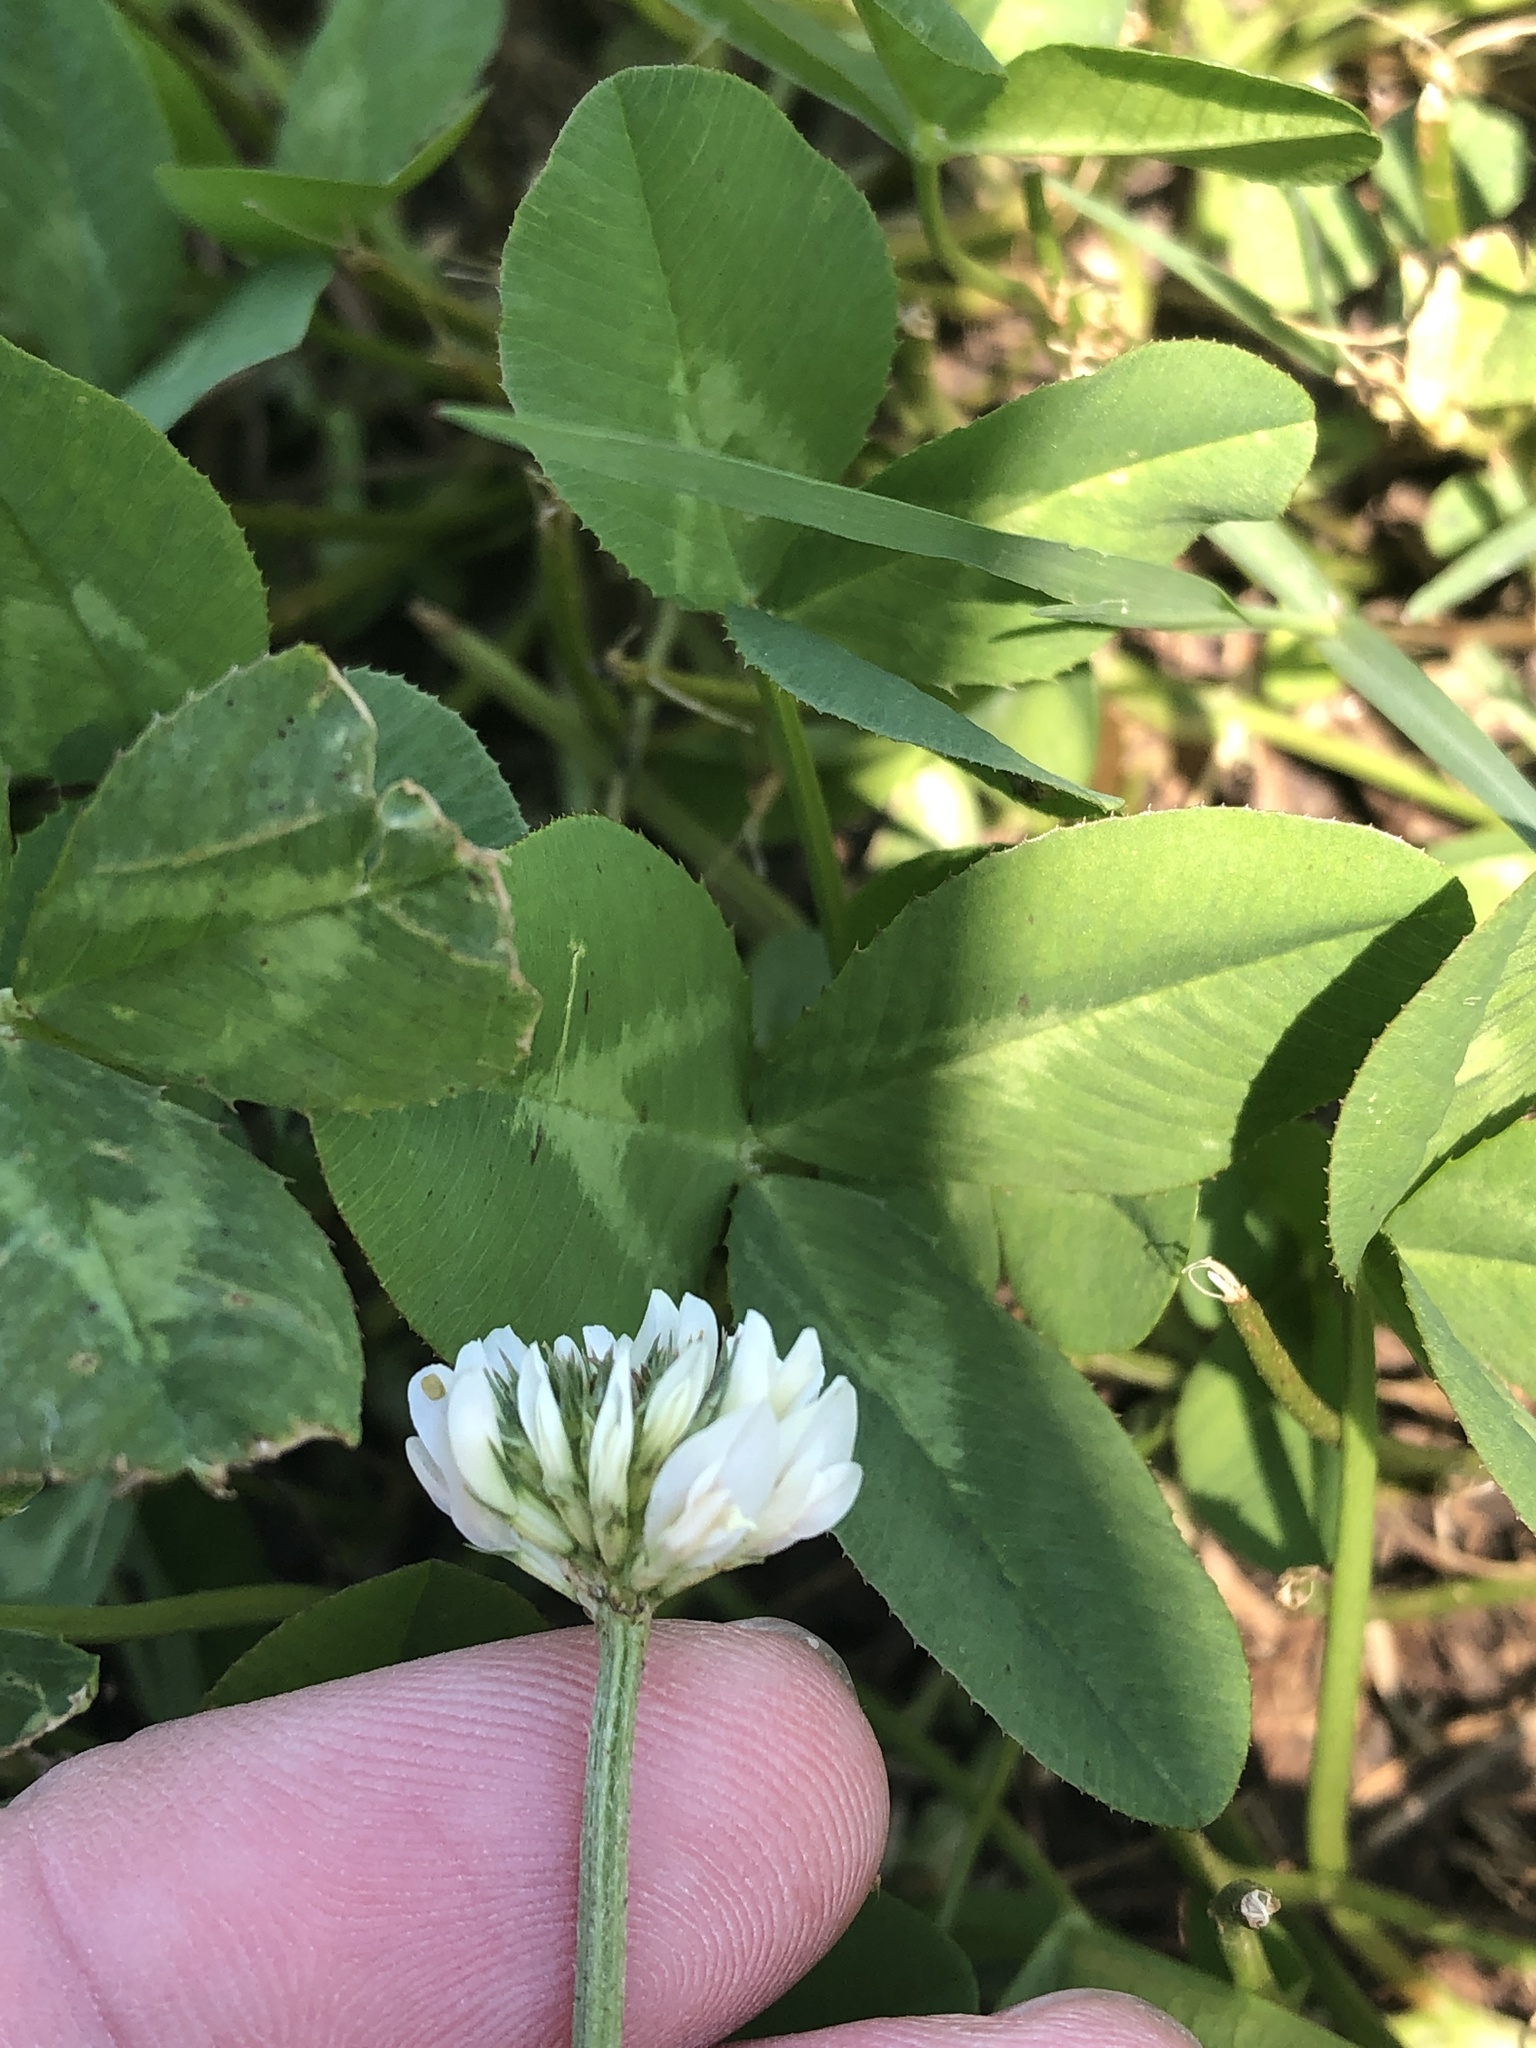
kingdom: Plantae
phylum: Tracheophyta
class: Magnoliopsida
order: Fabales
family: Fabaceae
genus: Trifolium
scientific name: Trifolium repens
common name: White clover
